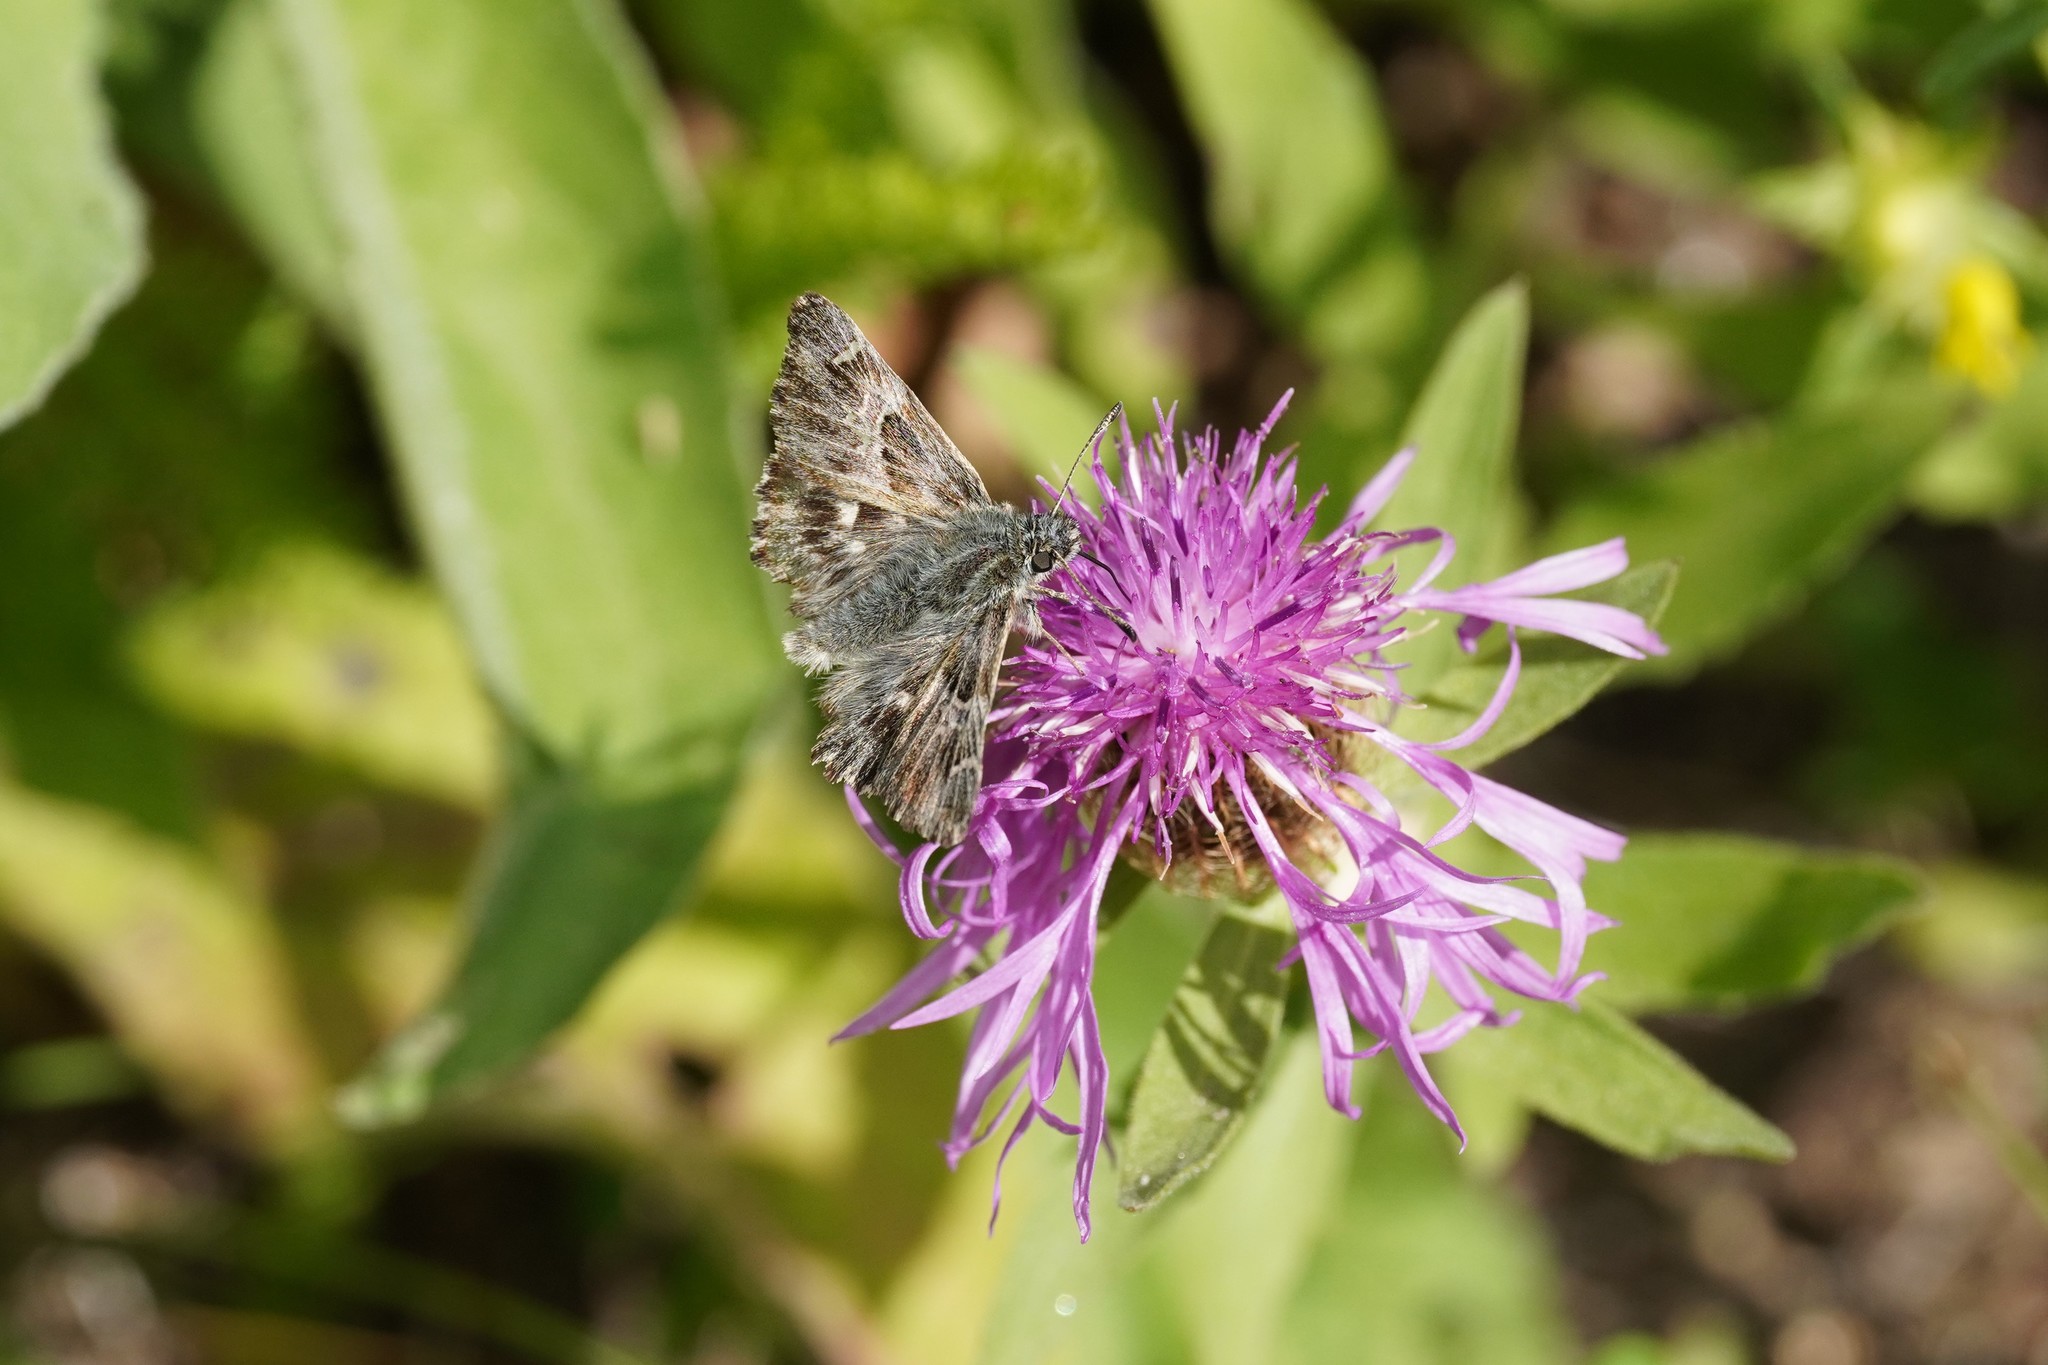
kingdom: Animalia
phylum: Arthropoda
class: Insecta
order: Lepidoptera
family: Hesperiidae
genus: Carcharodus
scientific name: Carcharodus floccifera
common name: Tufted marbled skipper
